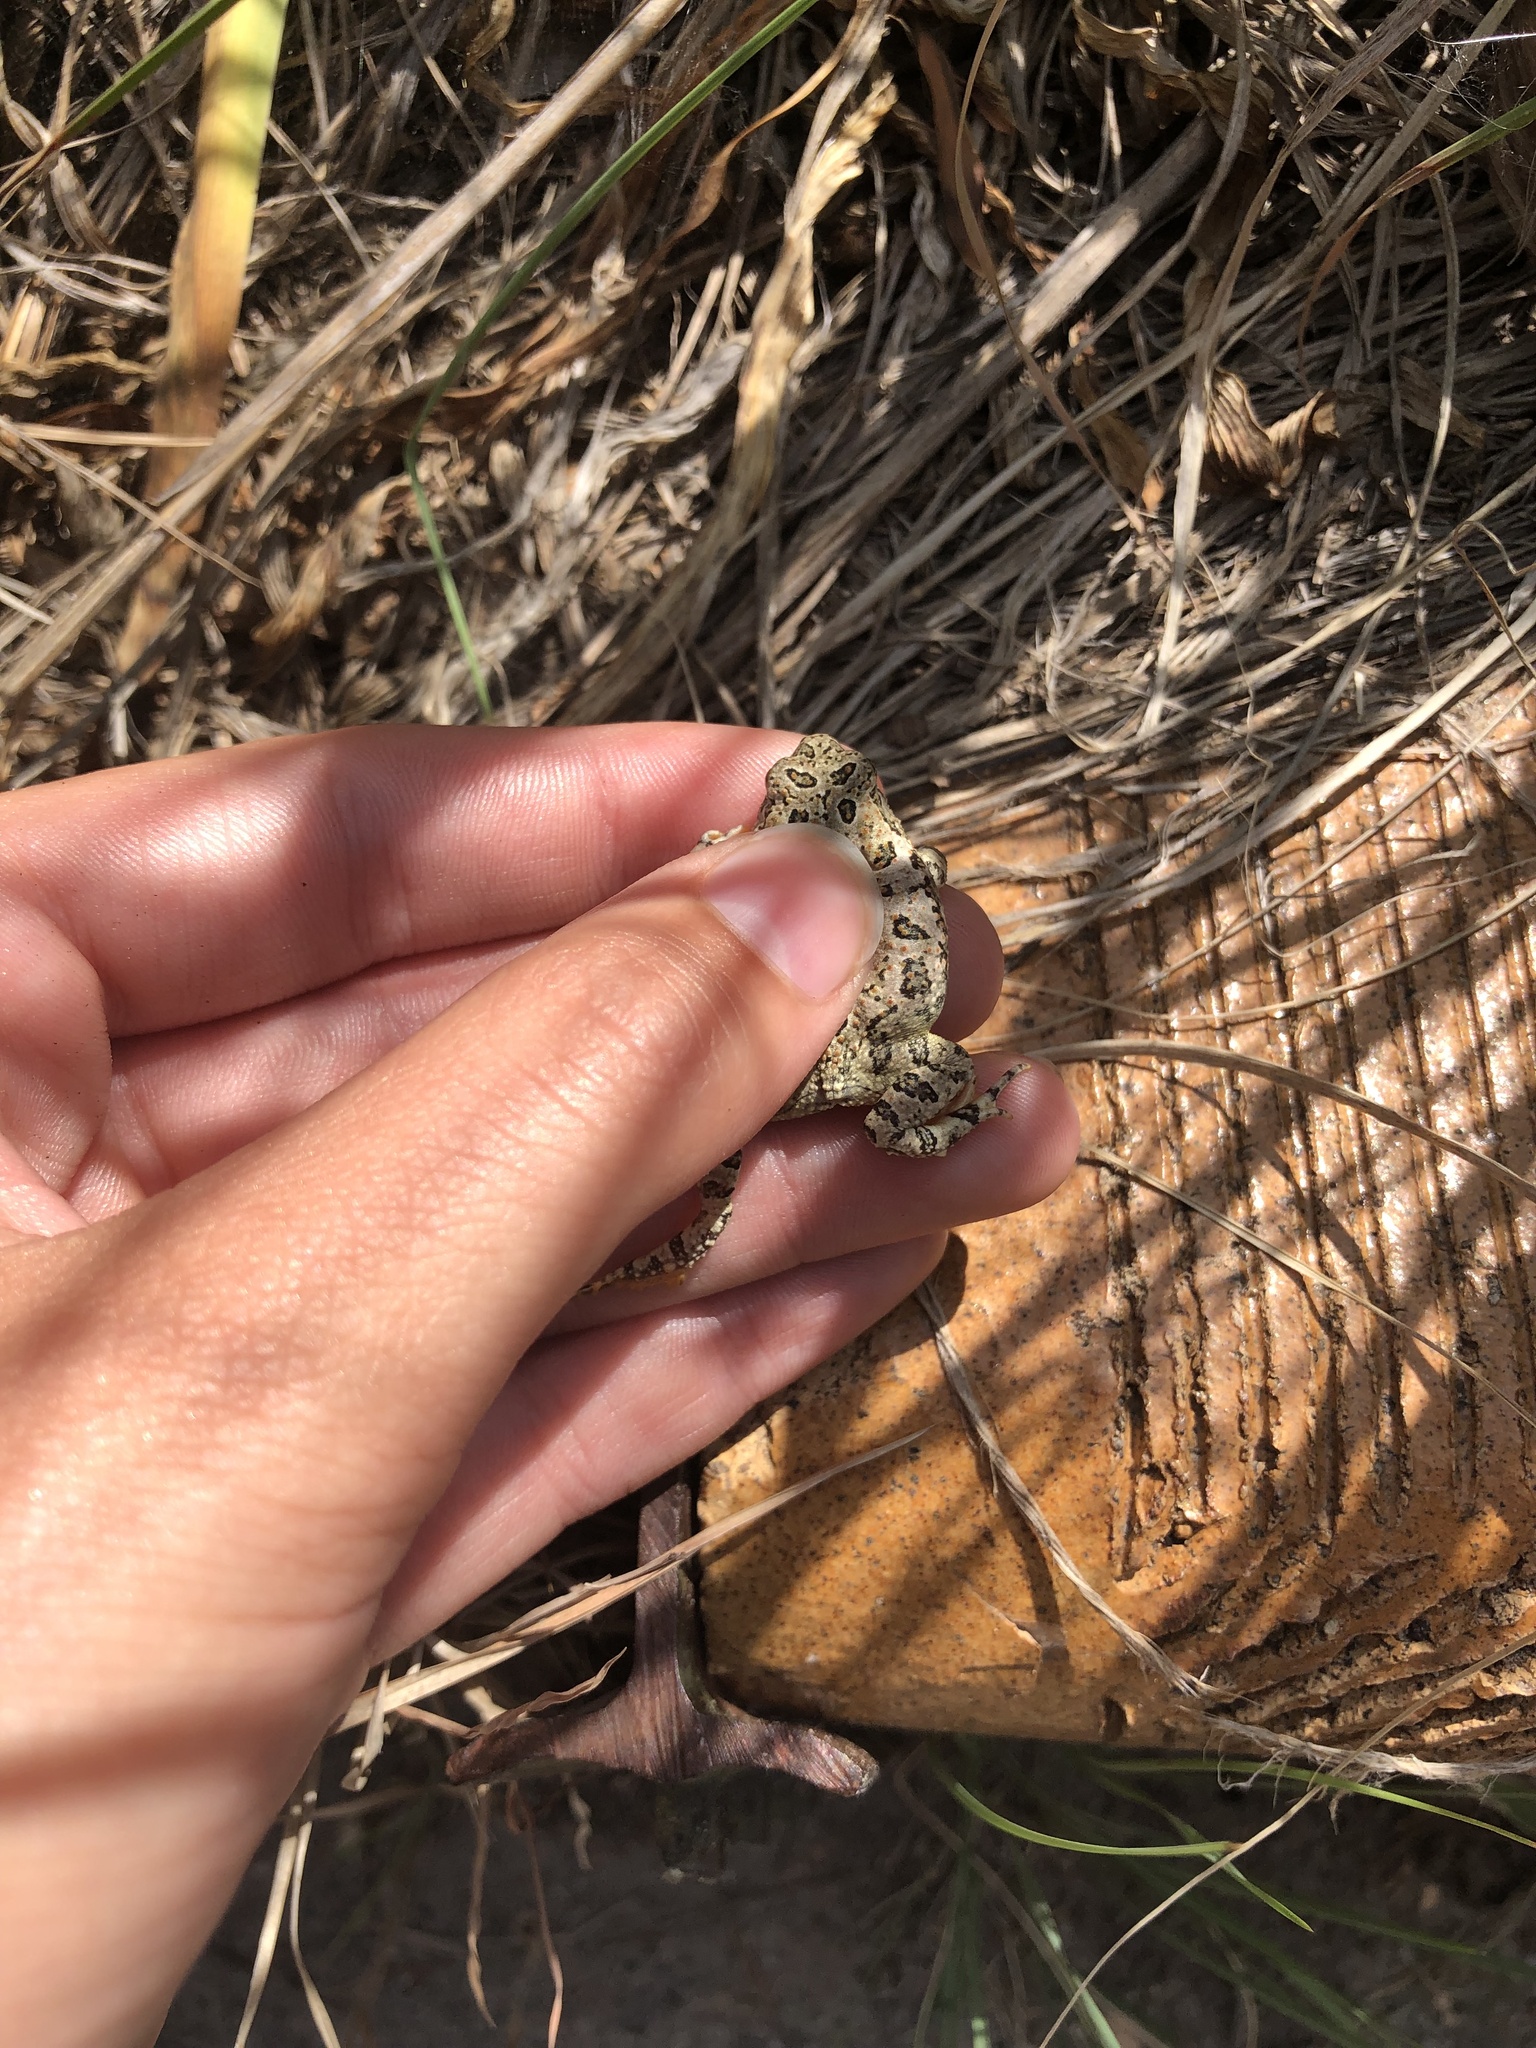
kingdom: Animalia
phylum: Chordata
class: Amphibia
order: Anura
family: Bufonidae
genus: Anaxyrus
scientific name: Anaxyrus woodhousii
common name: Woodhouse's toad
